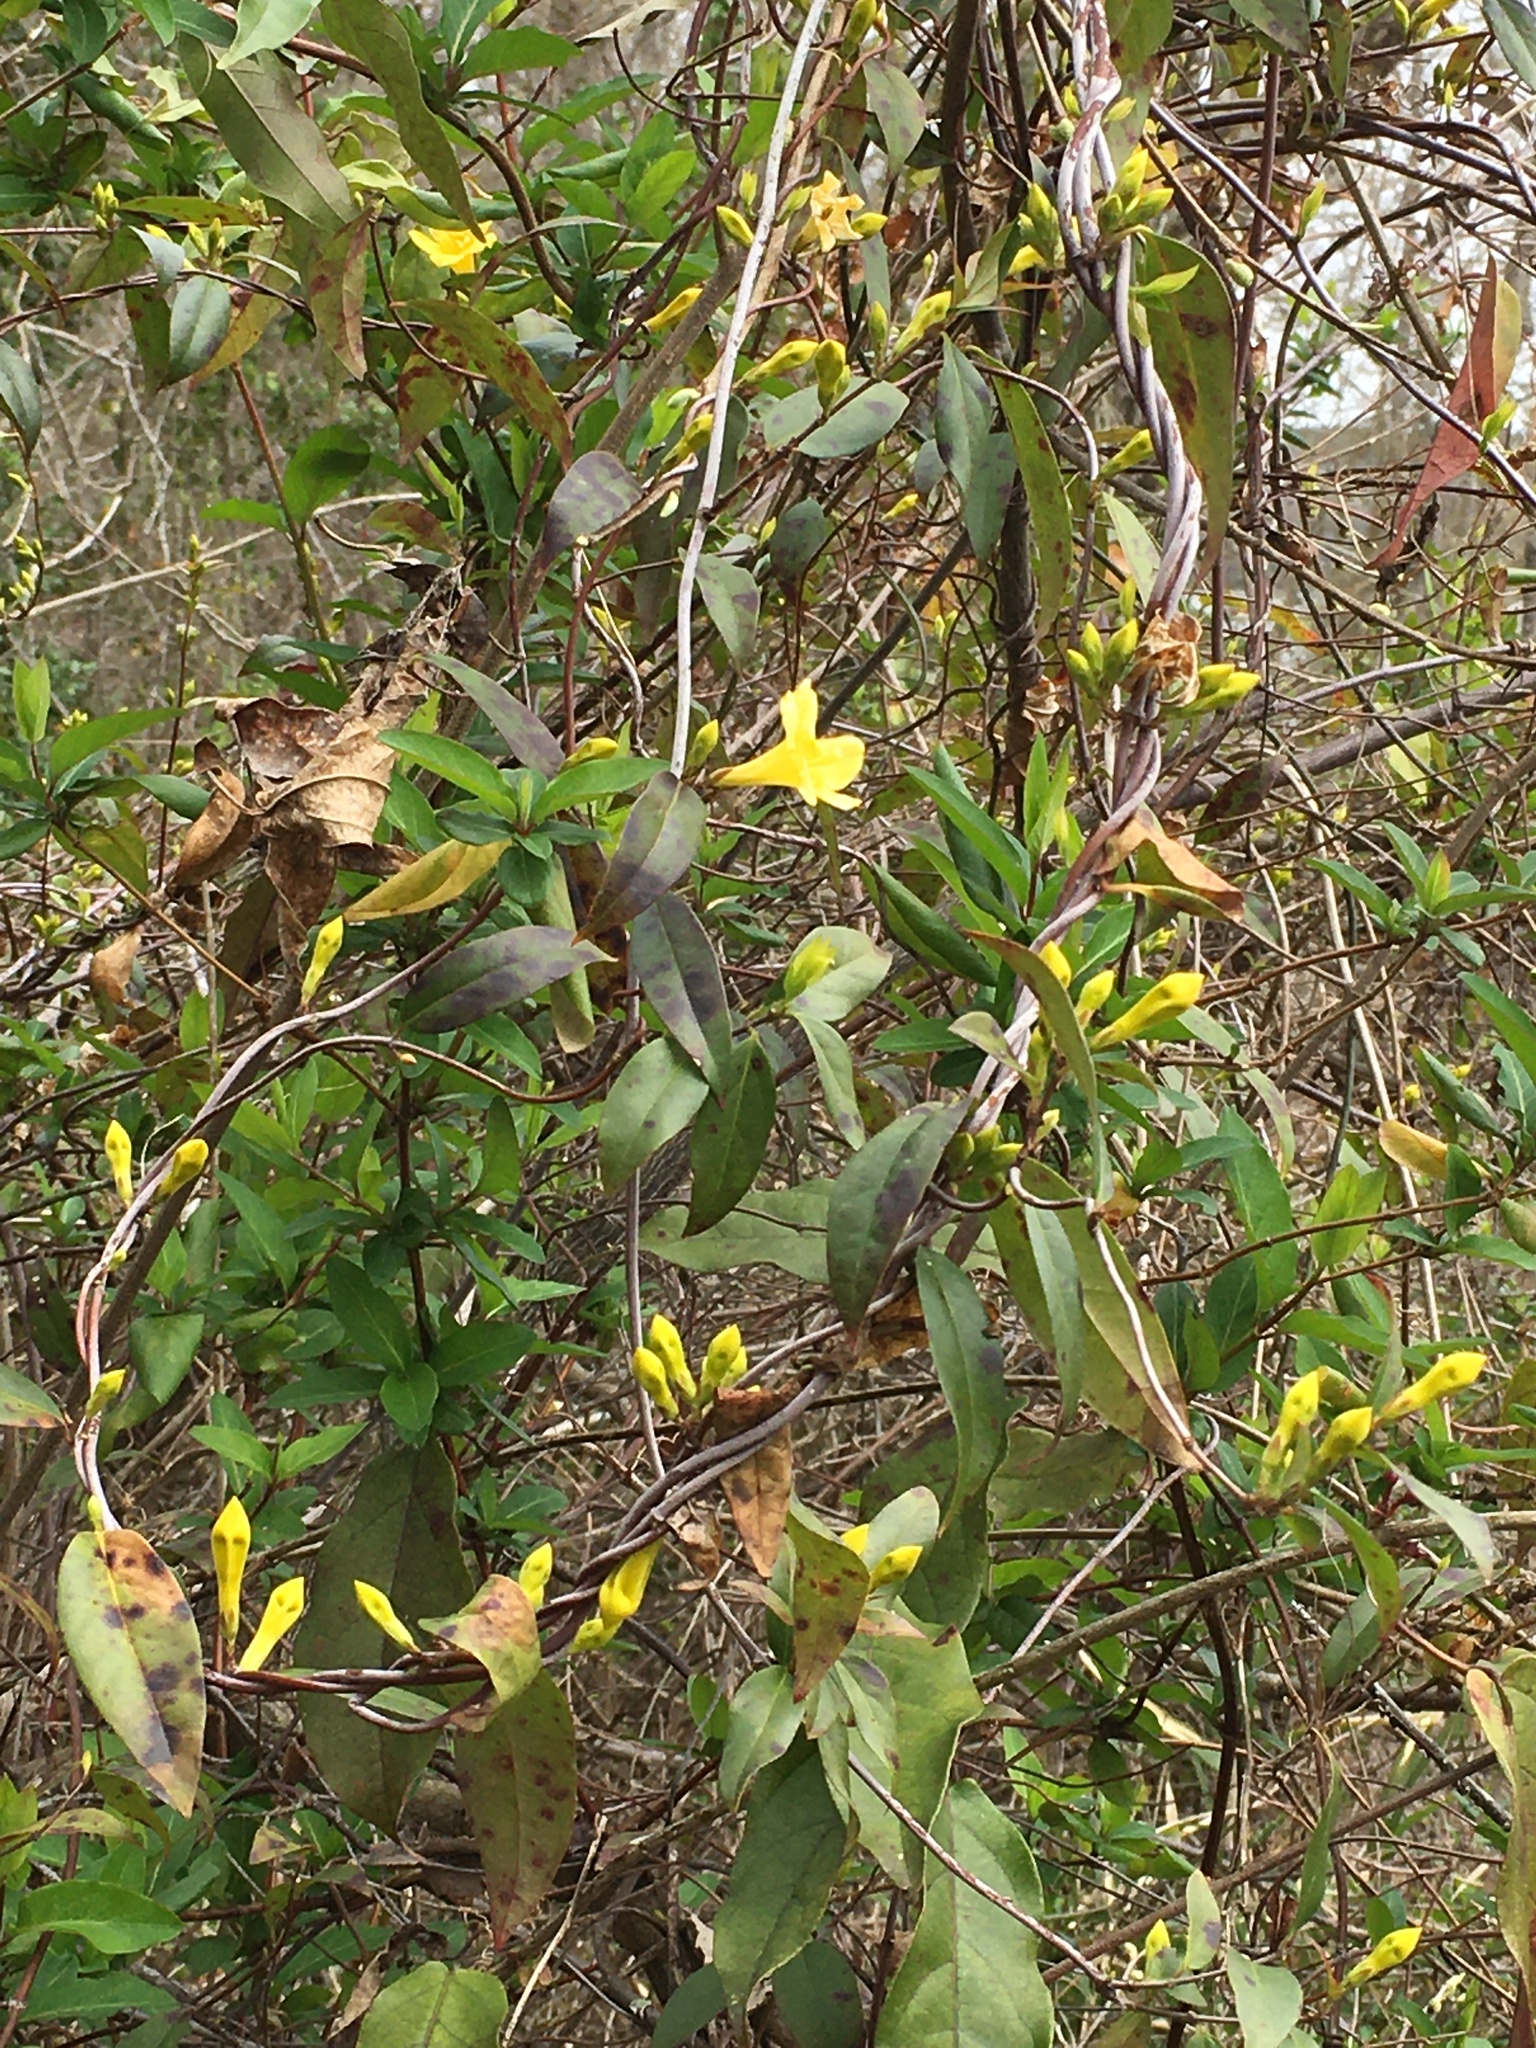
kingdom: Plantae
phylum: Tracheophyta
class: Magnoliopsida
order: Gentianales
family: Gelsemiaceae
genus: Gelsemium
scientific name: Gelsemium sempervirens
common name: Carolina-jasmine
